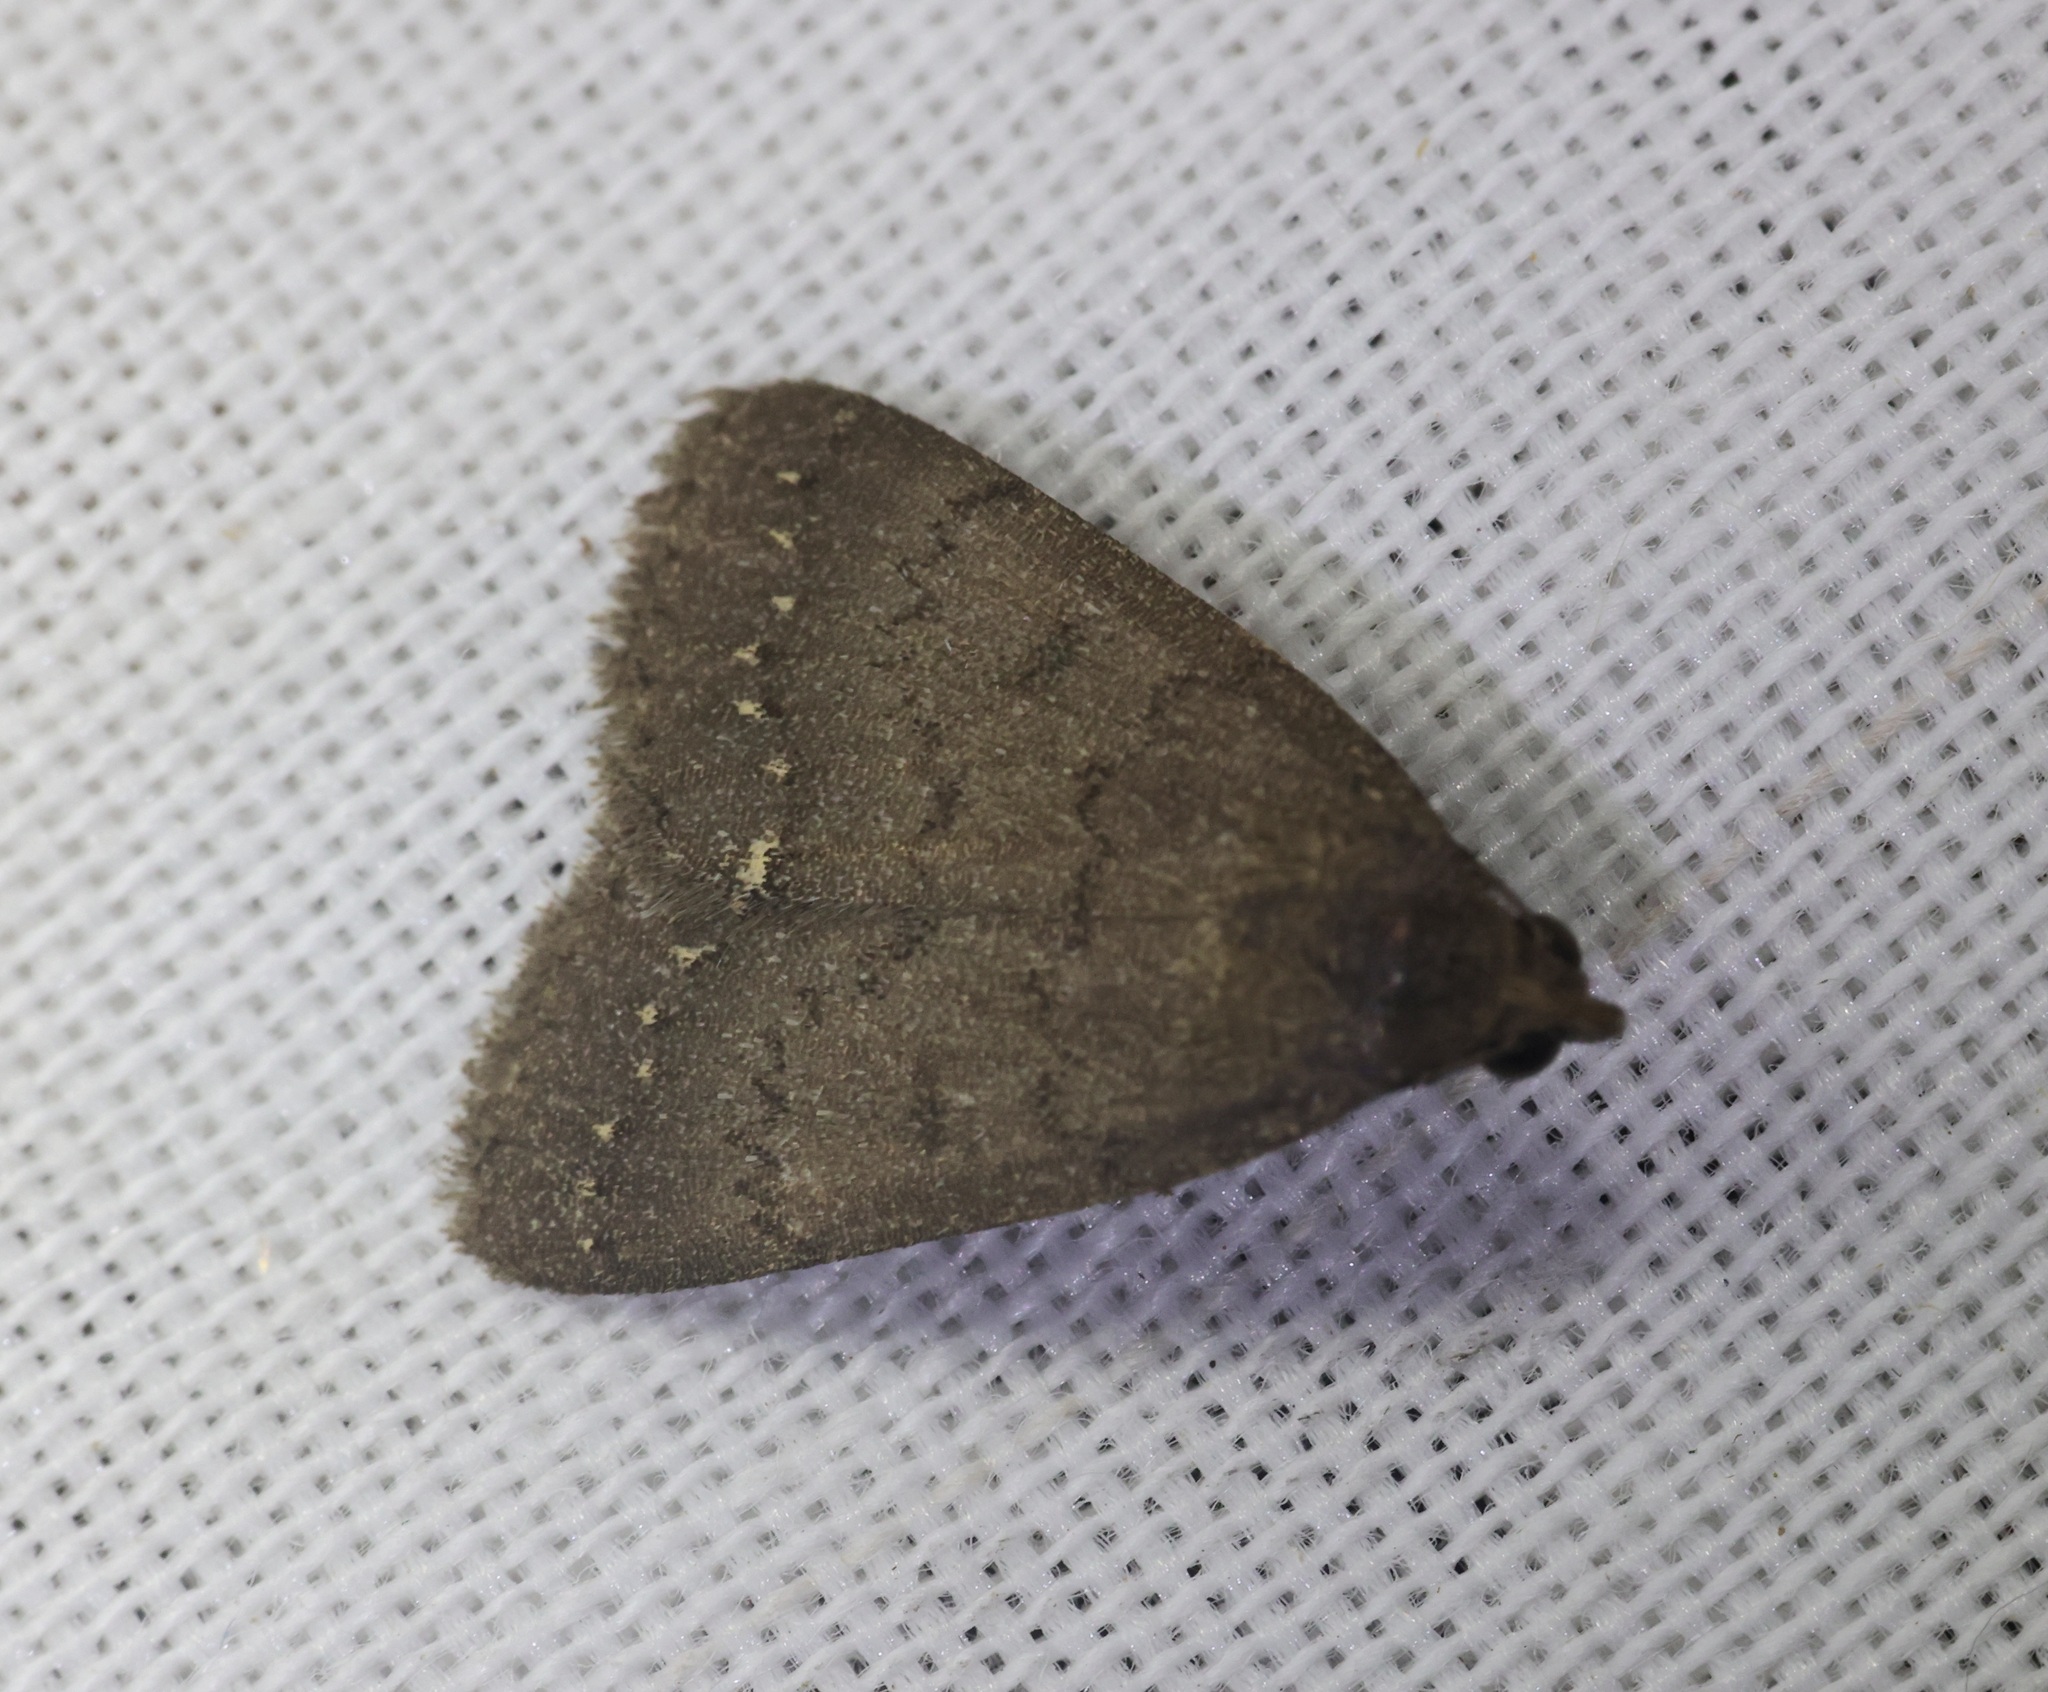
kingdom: Animalia
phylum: Arthropoda
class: Insecta
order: Lepidoptera
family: Erebidae
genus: Nodaria
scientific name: Nodaria externalis
